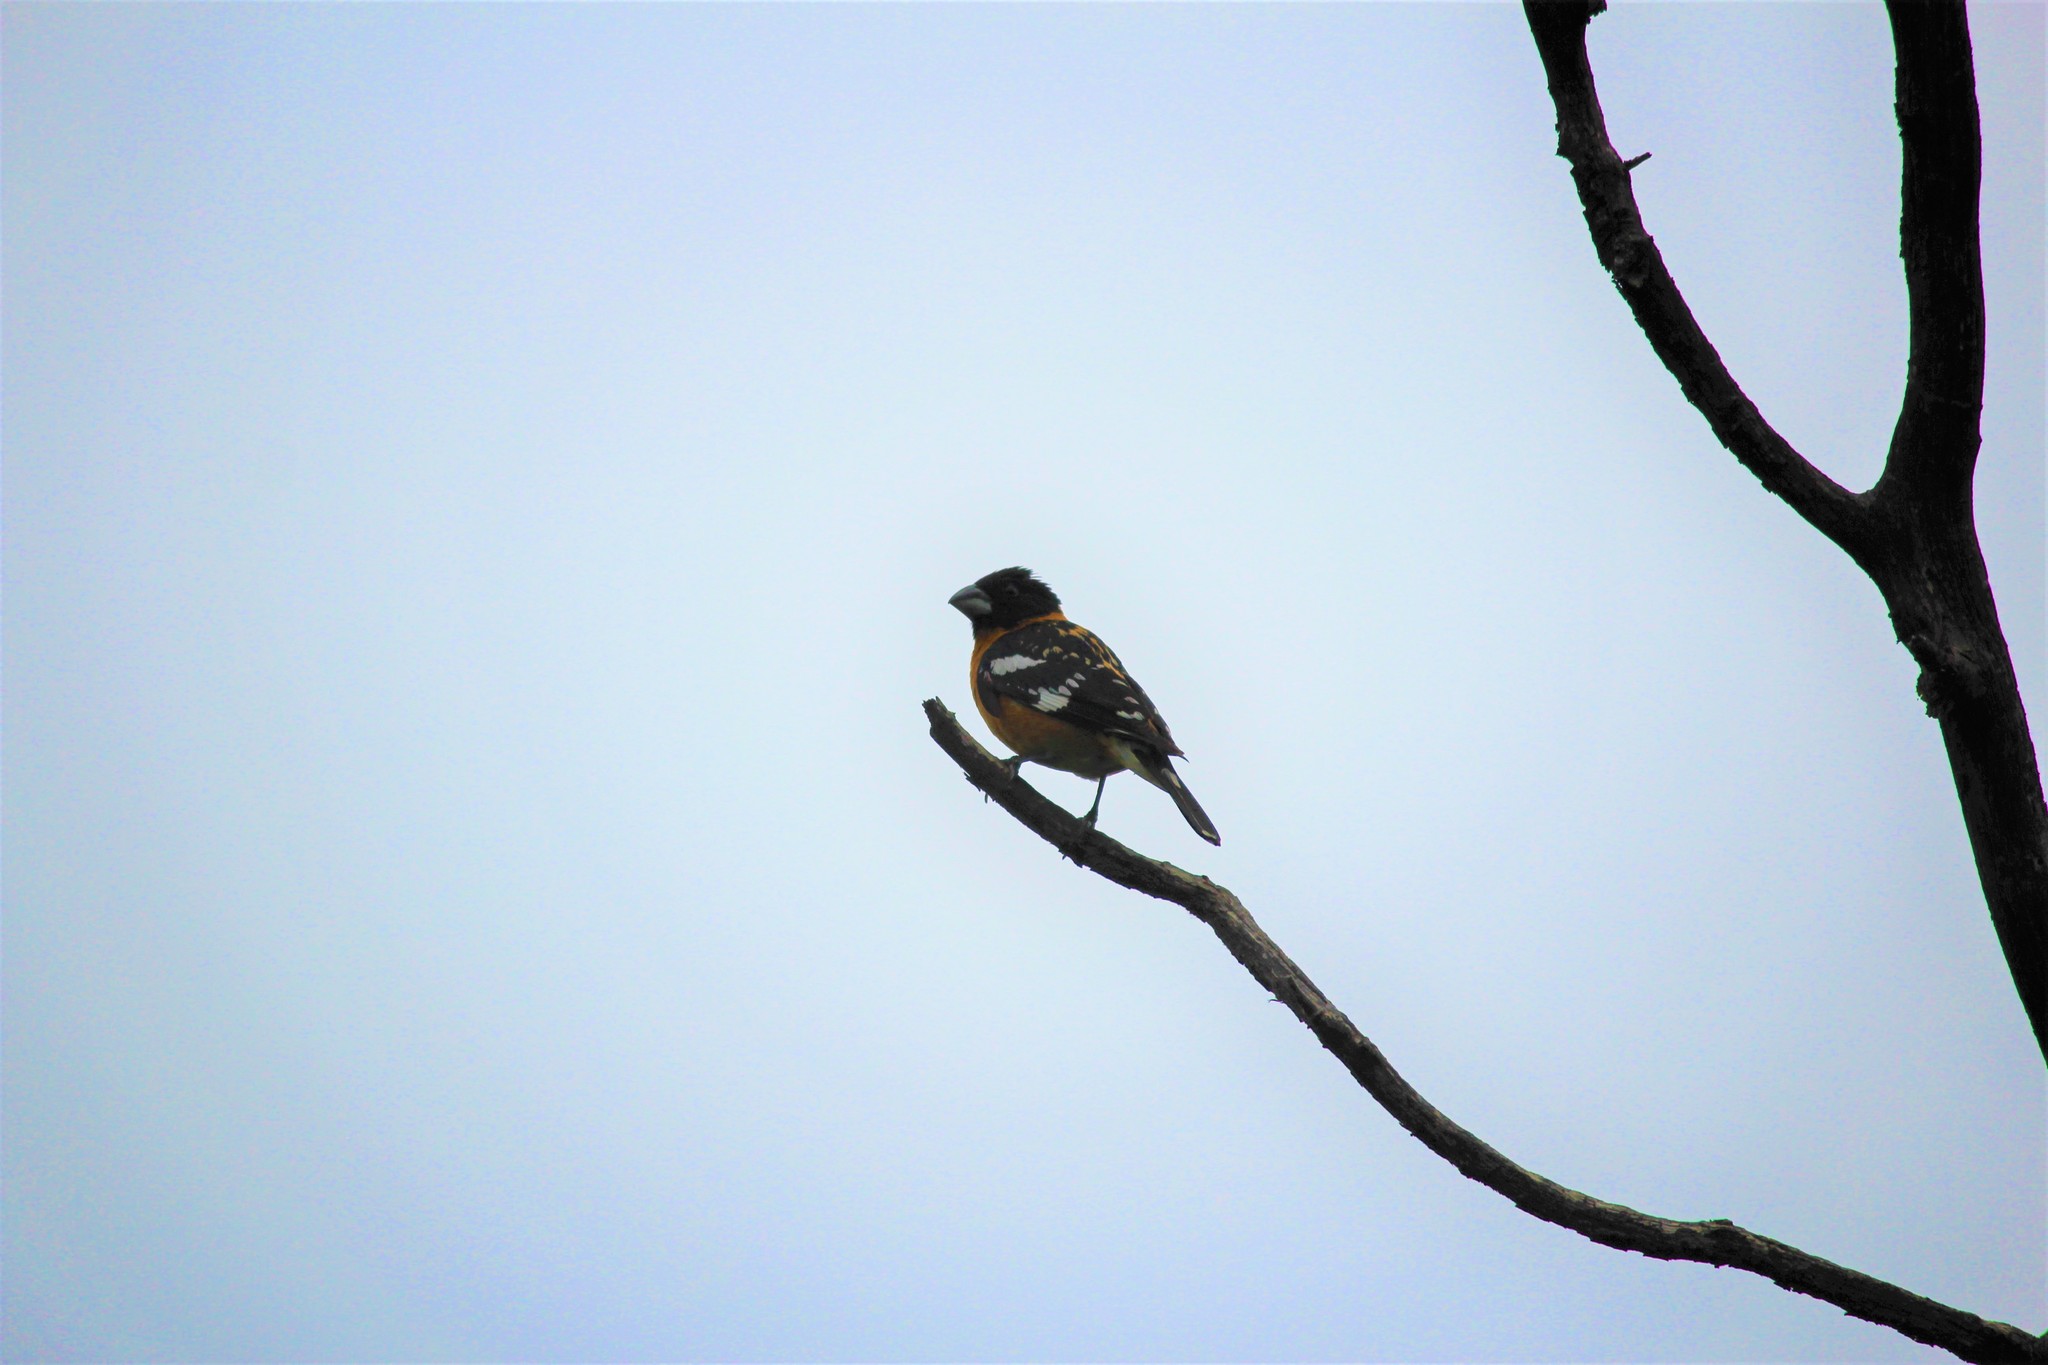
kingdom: Animalia
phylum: Chordata
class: Aves
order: Passeriformes
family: Cardinalidae
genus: Pheucticus
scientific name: Pheucticus melanocephalus
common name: Black-headed grosbeak
